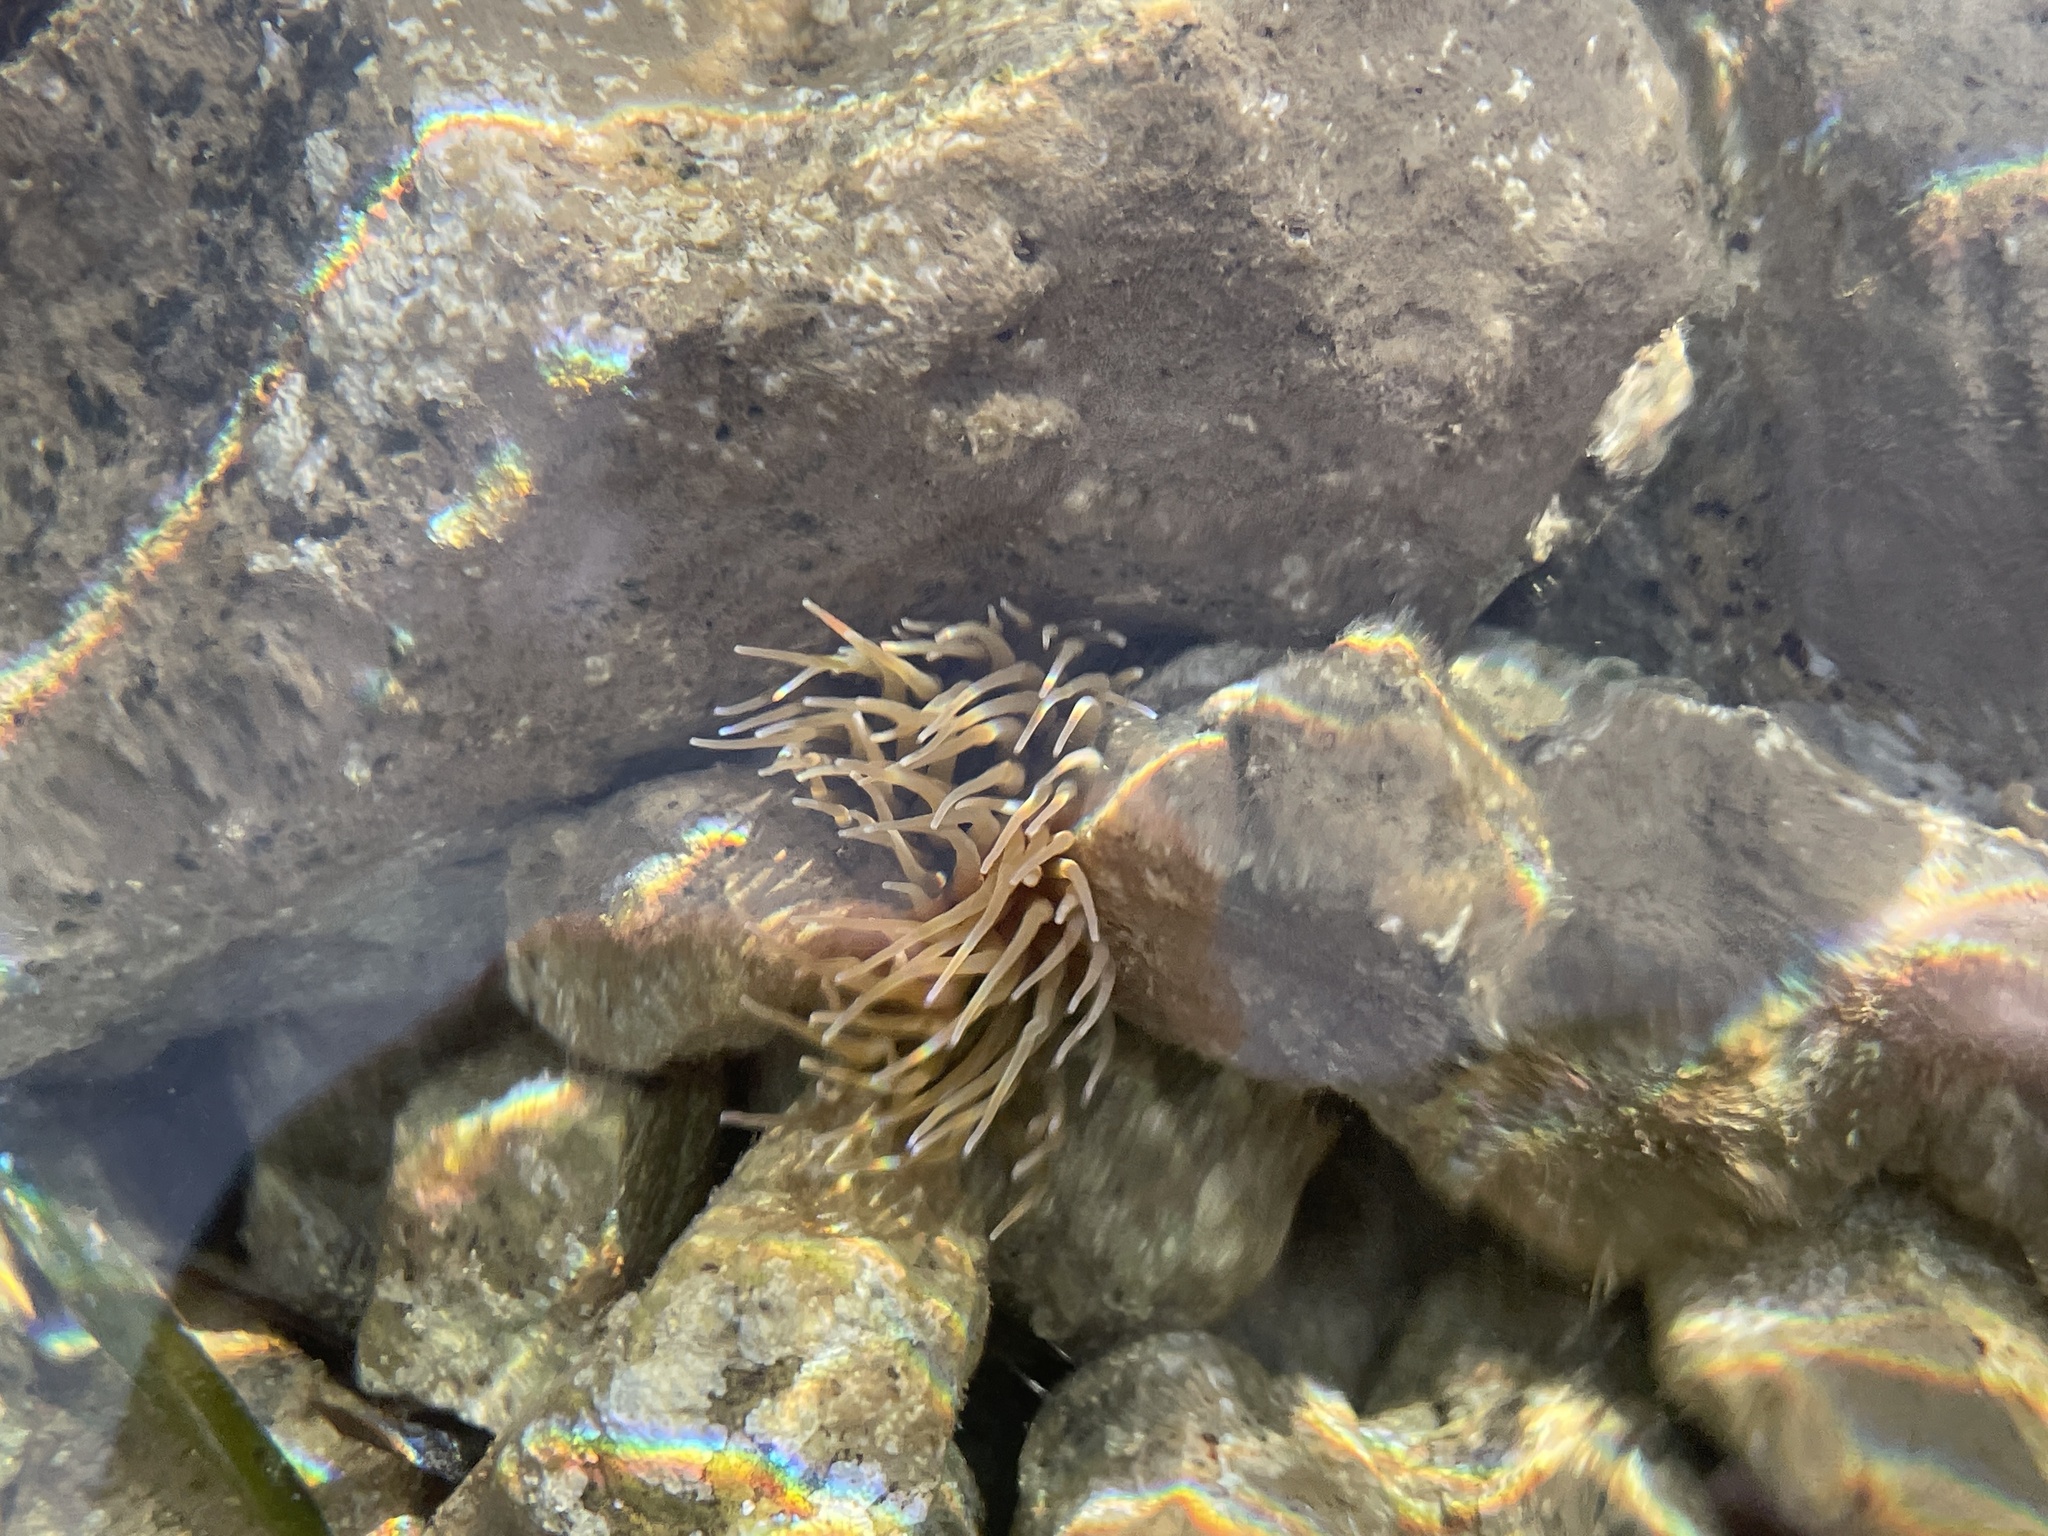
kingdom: Animalia
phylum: Cnidaria
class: Anthozoa
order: Actiniaria
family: Actiniidae
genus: Anemonia
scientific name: Anemonia viridis
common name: Snakelocks anemone
